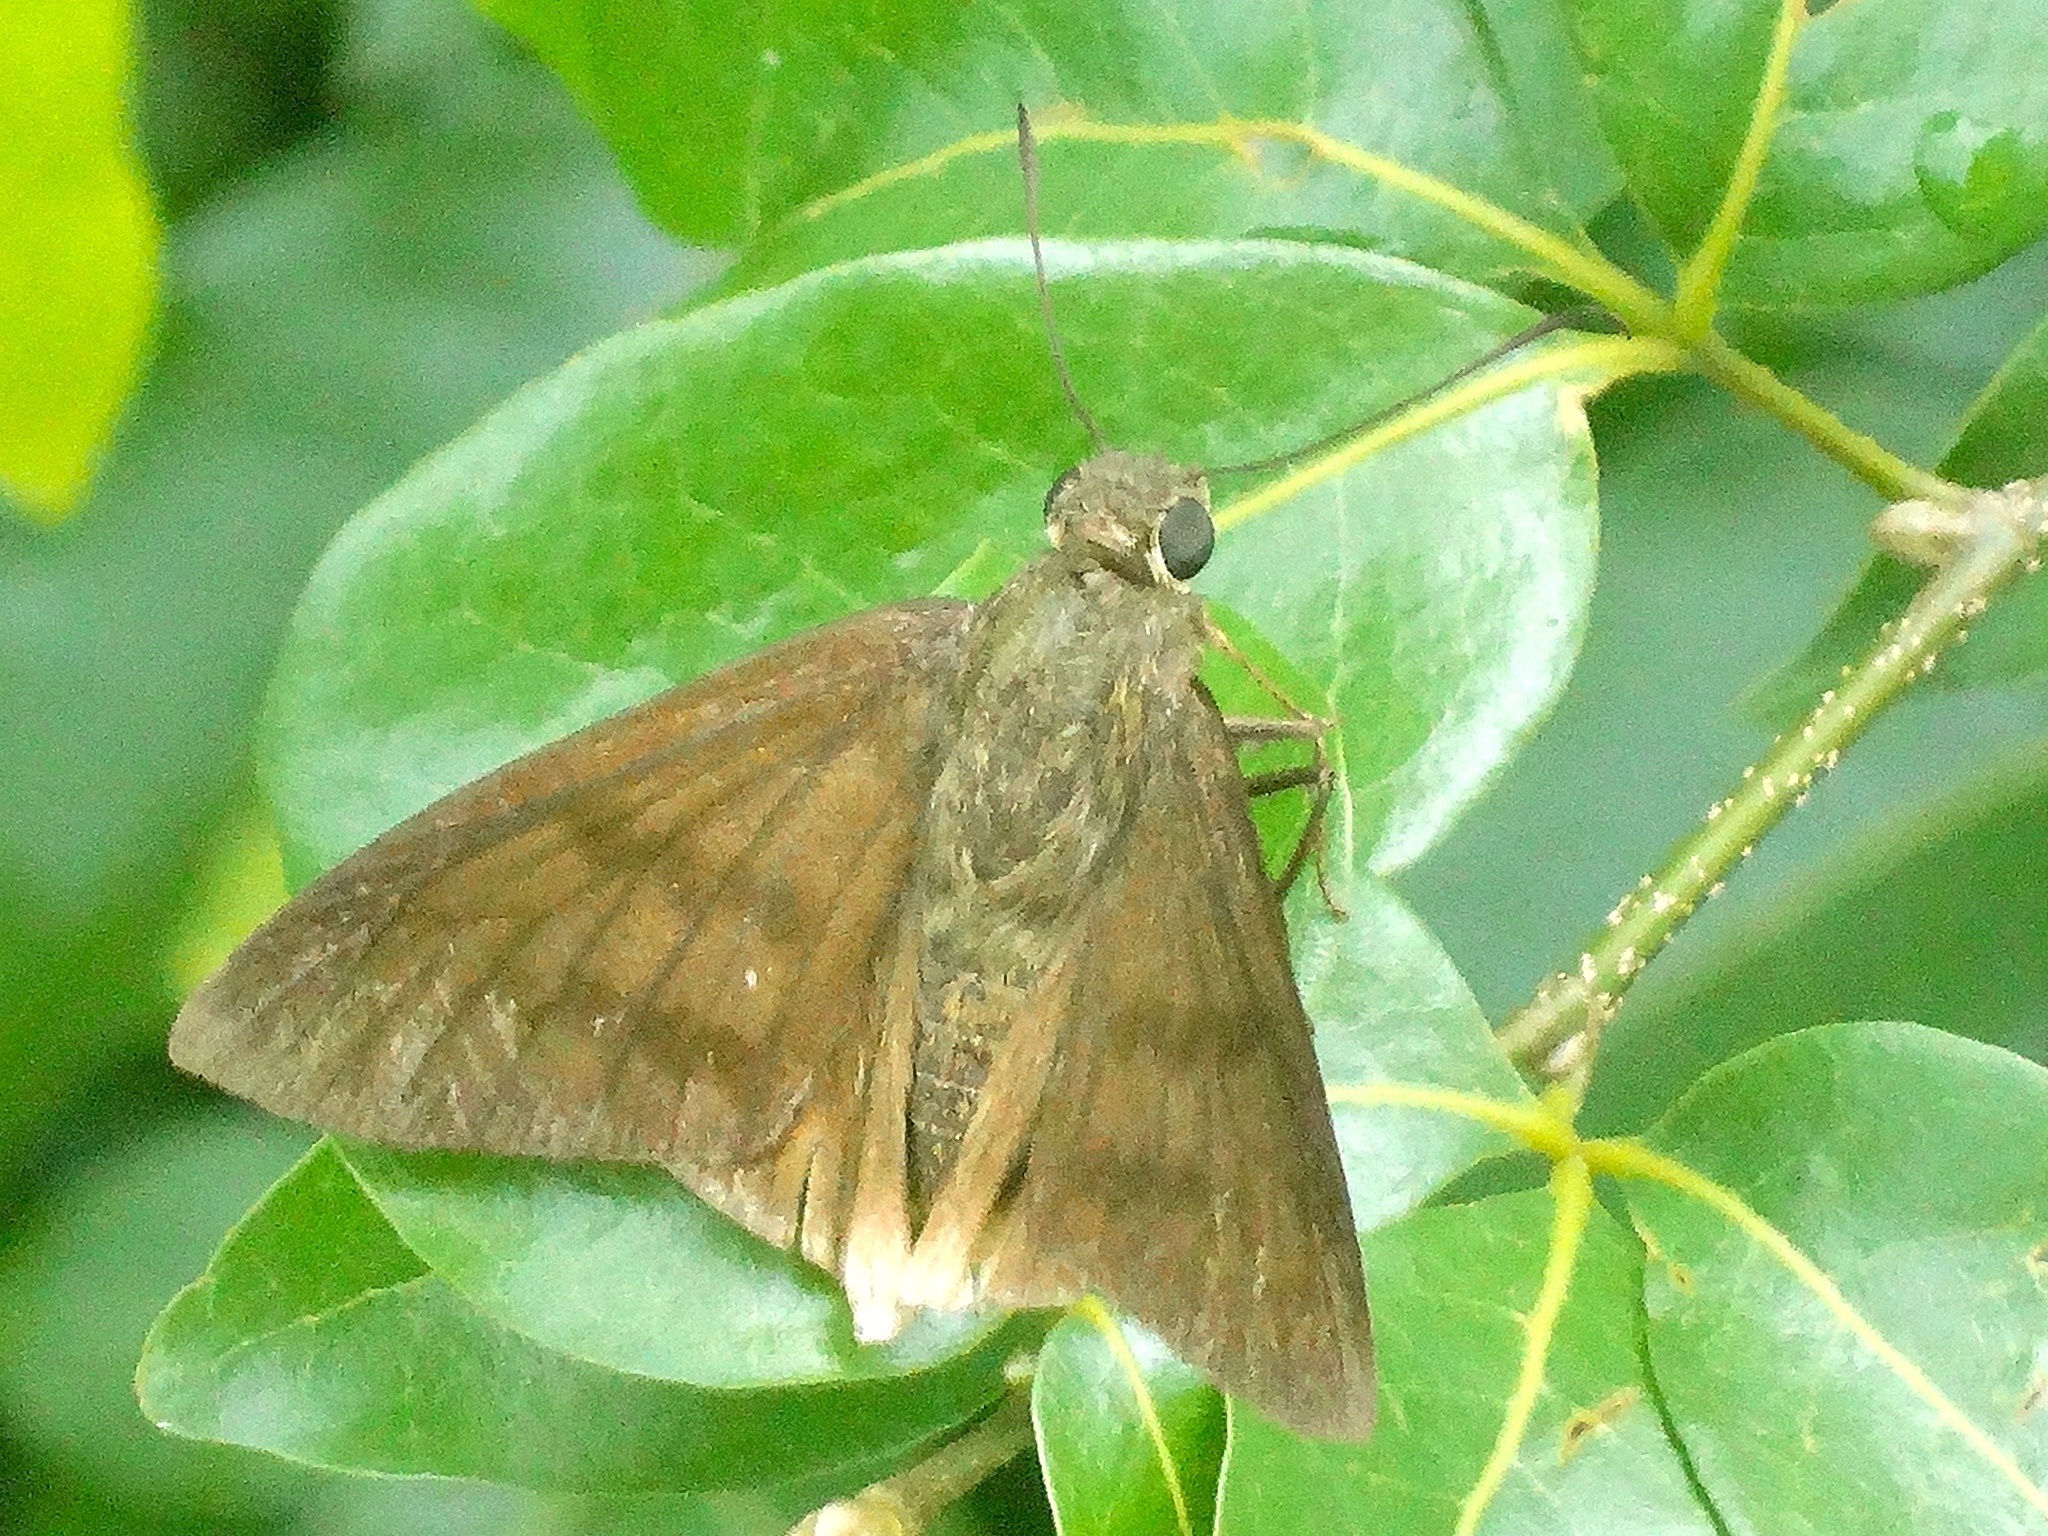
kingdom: Animalia
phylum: Arthropoda
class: Insecta
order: Lepidoptera
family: Hesperiidae
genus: Astraptes
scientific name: Astraptes
